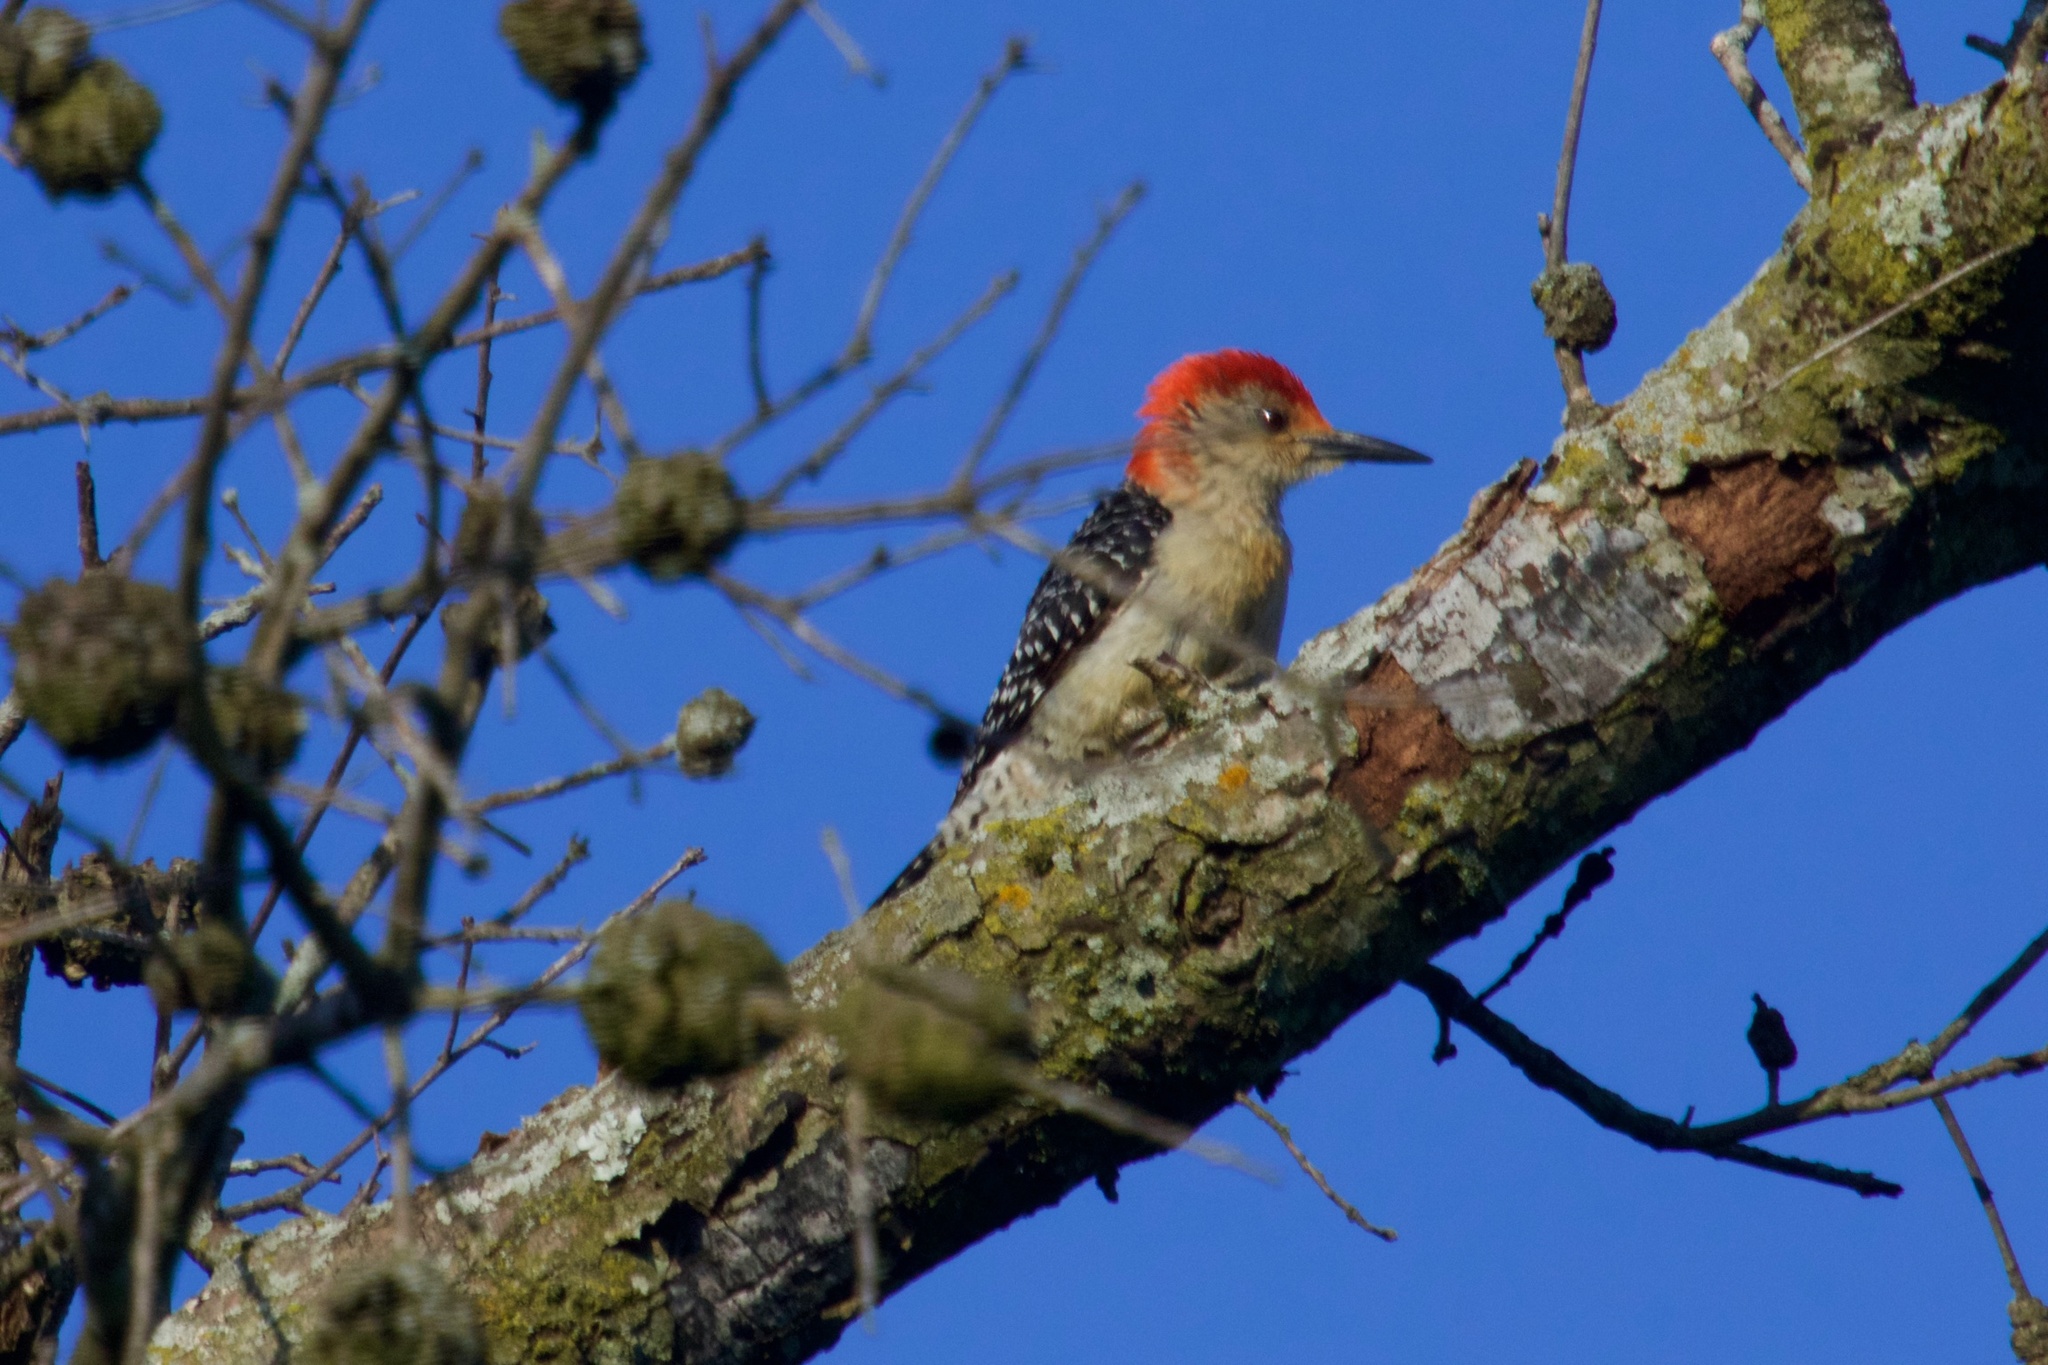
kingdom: Animalia
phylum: Chordata
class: Aves
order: Piciformes
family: Picidae
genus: Melanerpes
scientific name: Melanerpes carolinus
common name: Red-bellied woodpecker
